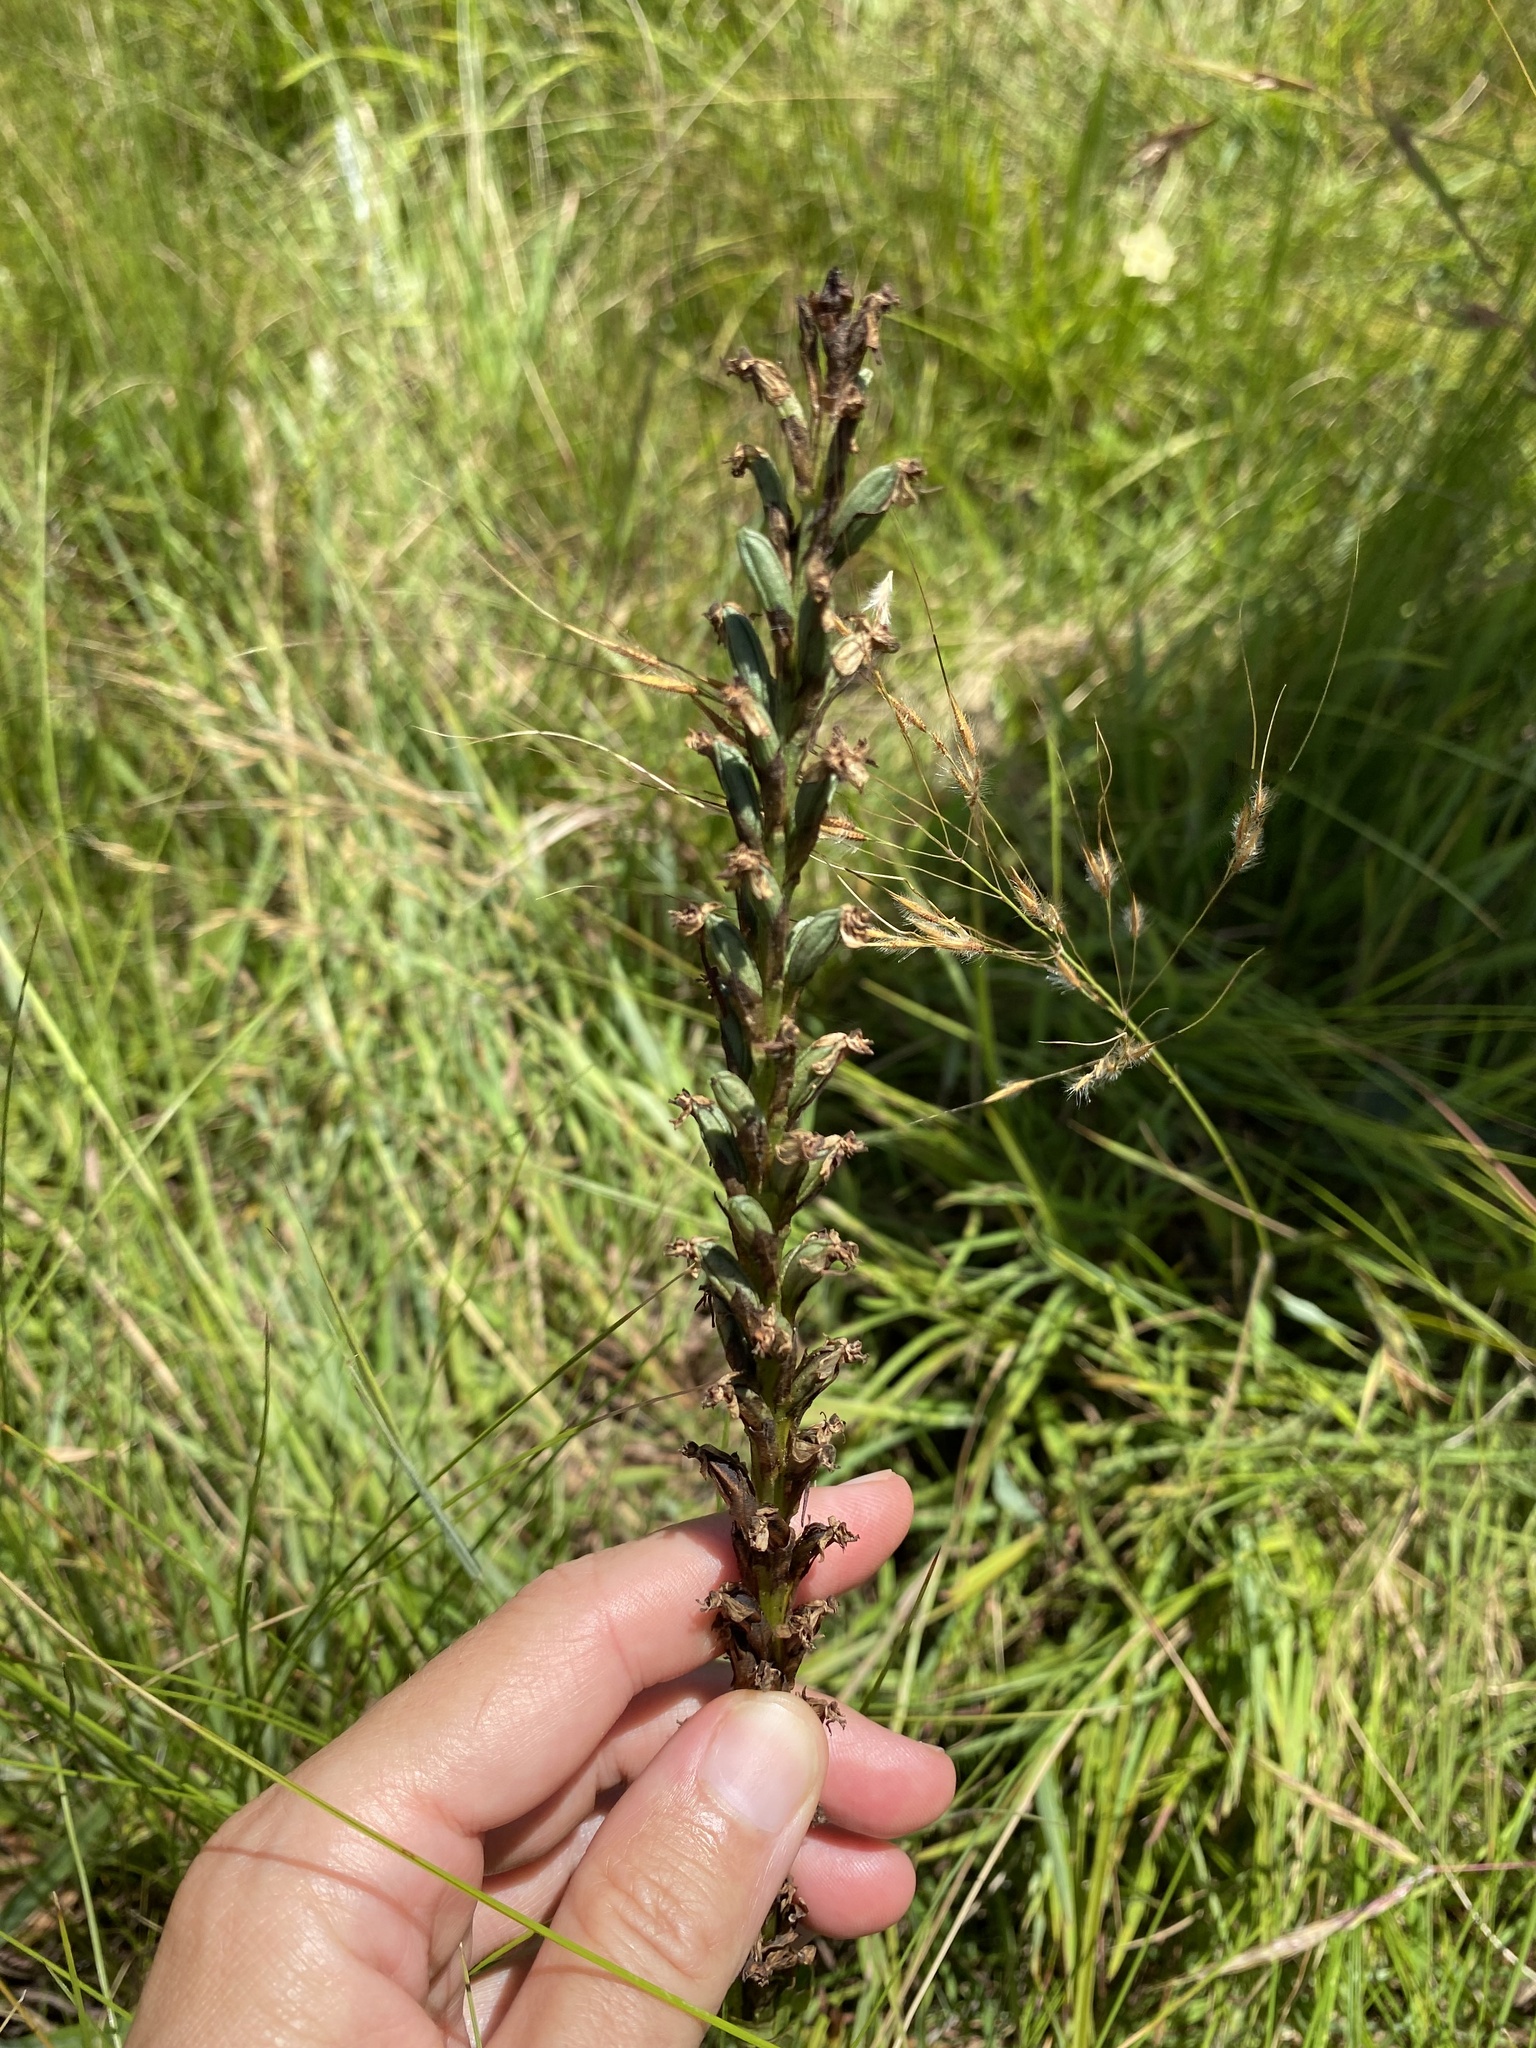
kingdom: Plantae
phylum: Tracheophyta
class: Liliopsida
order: Asparagales
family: Orchidaceae
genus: Habenaria
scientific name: Habenaria dives
